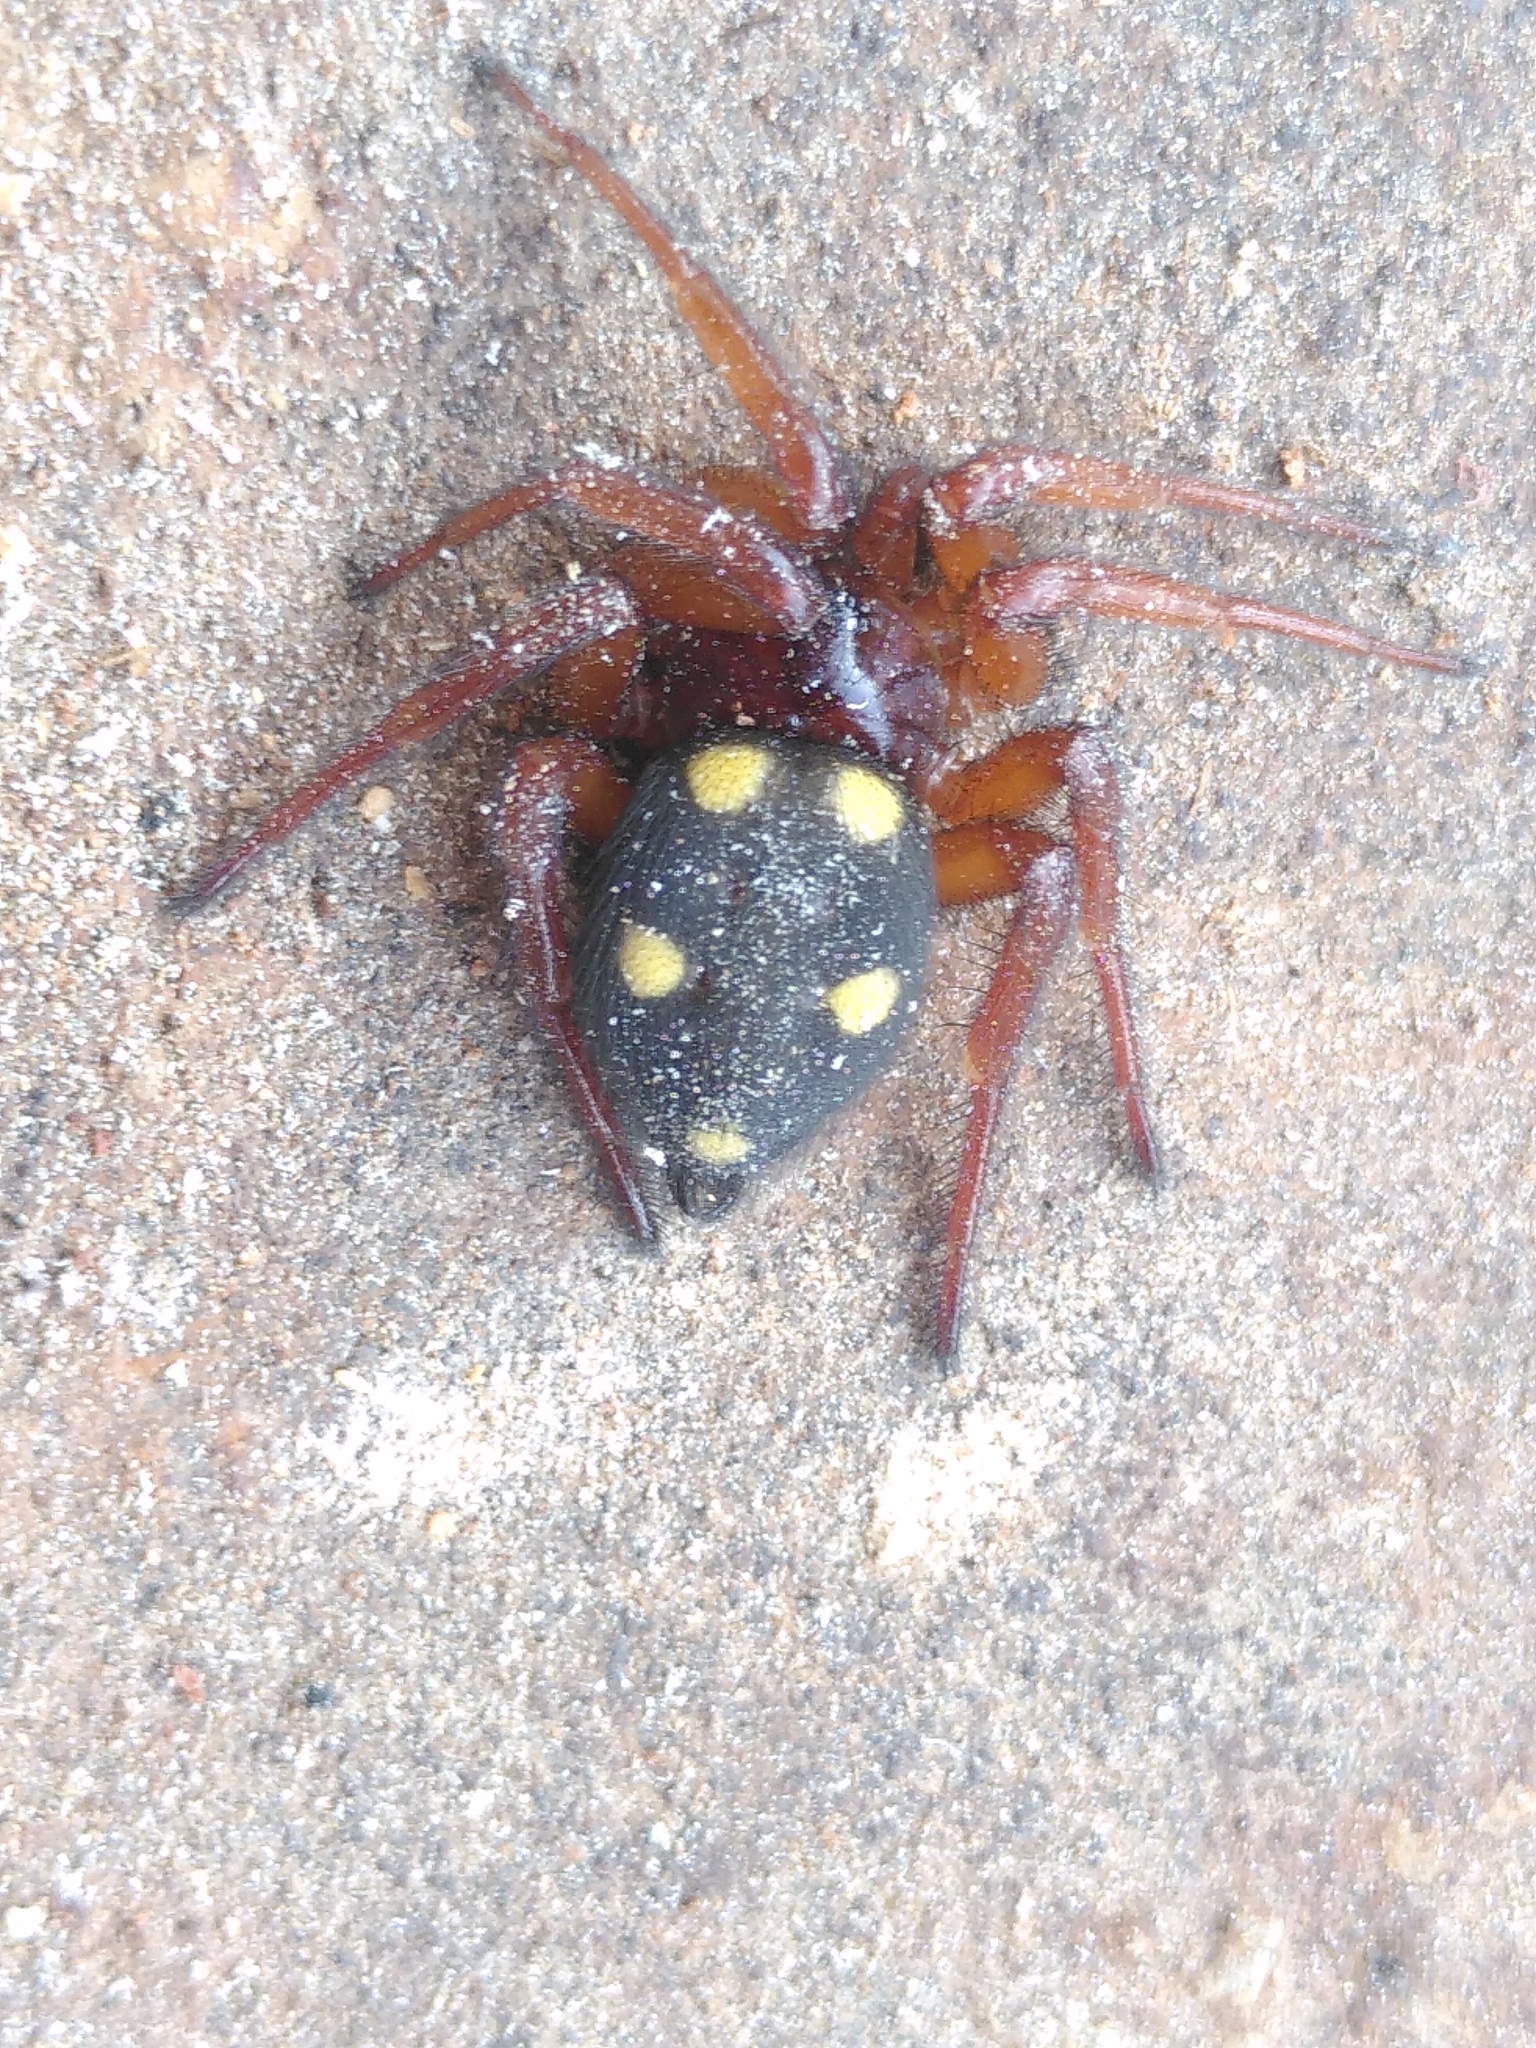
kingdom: Animalia
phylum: Arthropoda
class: Arachnida
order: Araneae
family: Oecobiidae
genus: Uroctea
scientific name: Uroctea durandi
